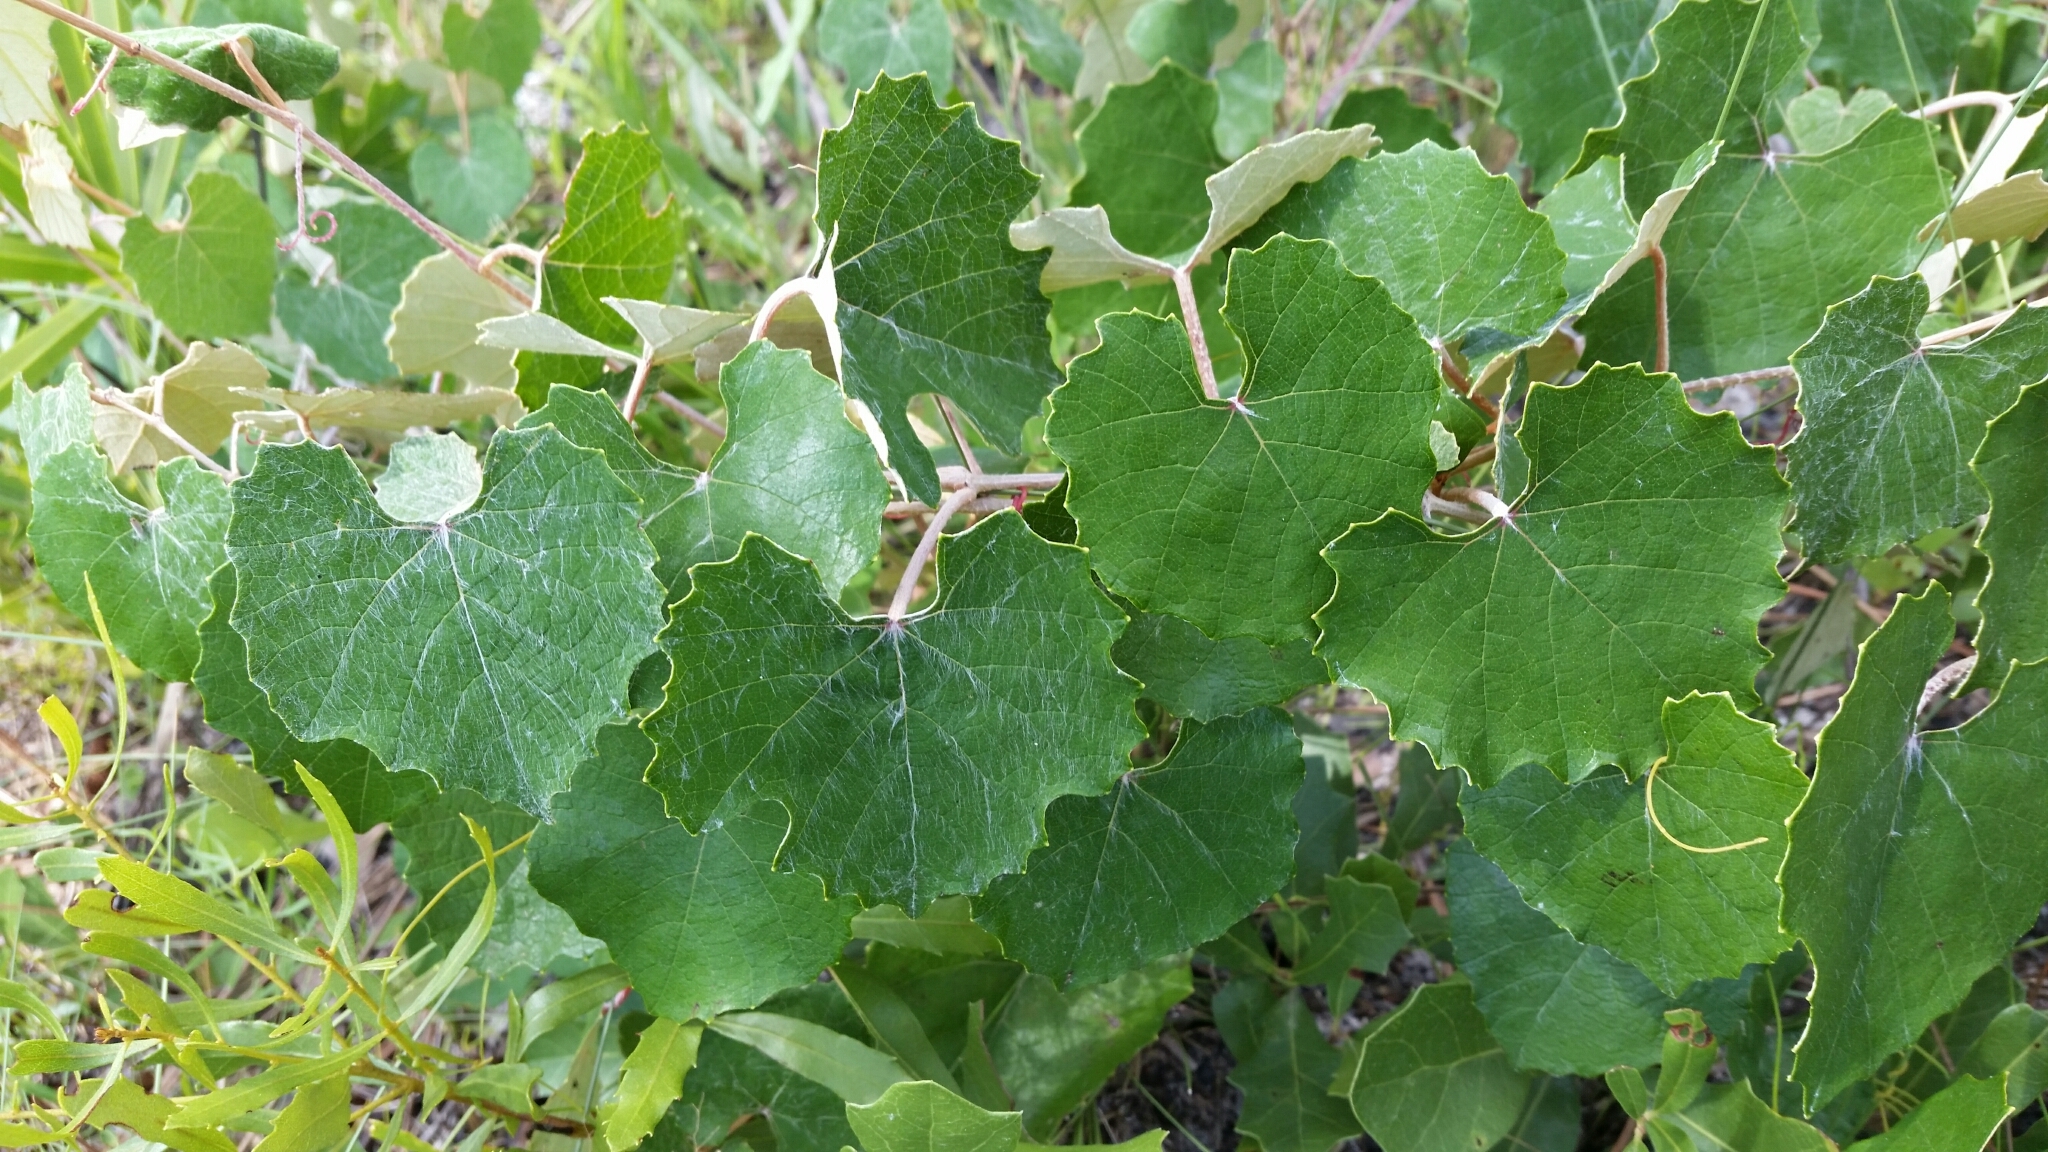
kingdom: Plantae
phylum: Tracheophyta
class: Magnoliopsida
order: Vitales
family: Vitaceae
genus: Vitis
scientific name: Vitis shuttleworthii
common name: Caloosa grape
